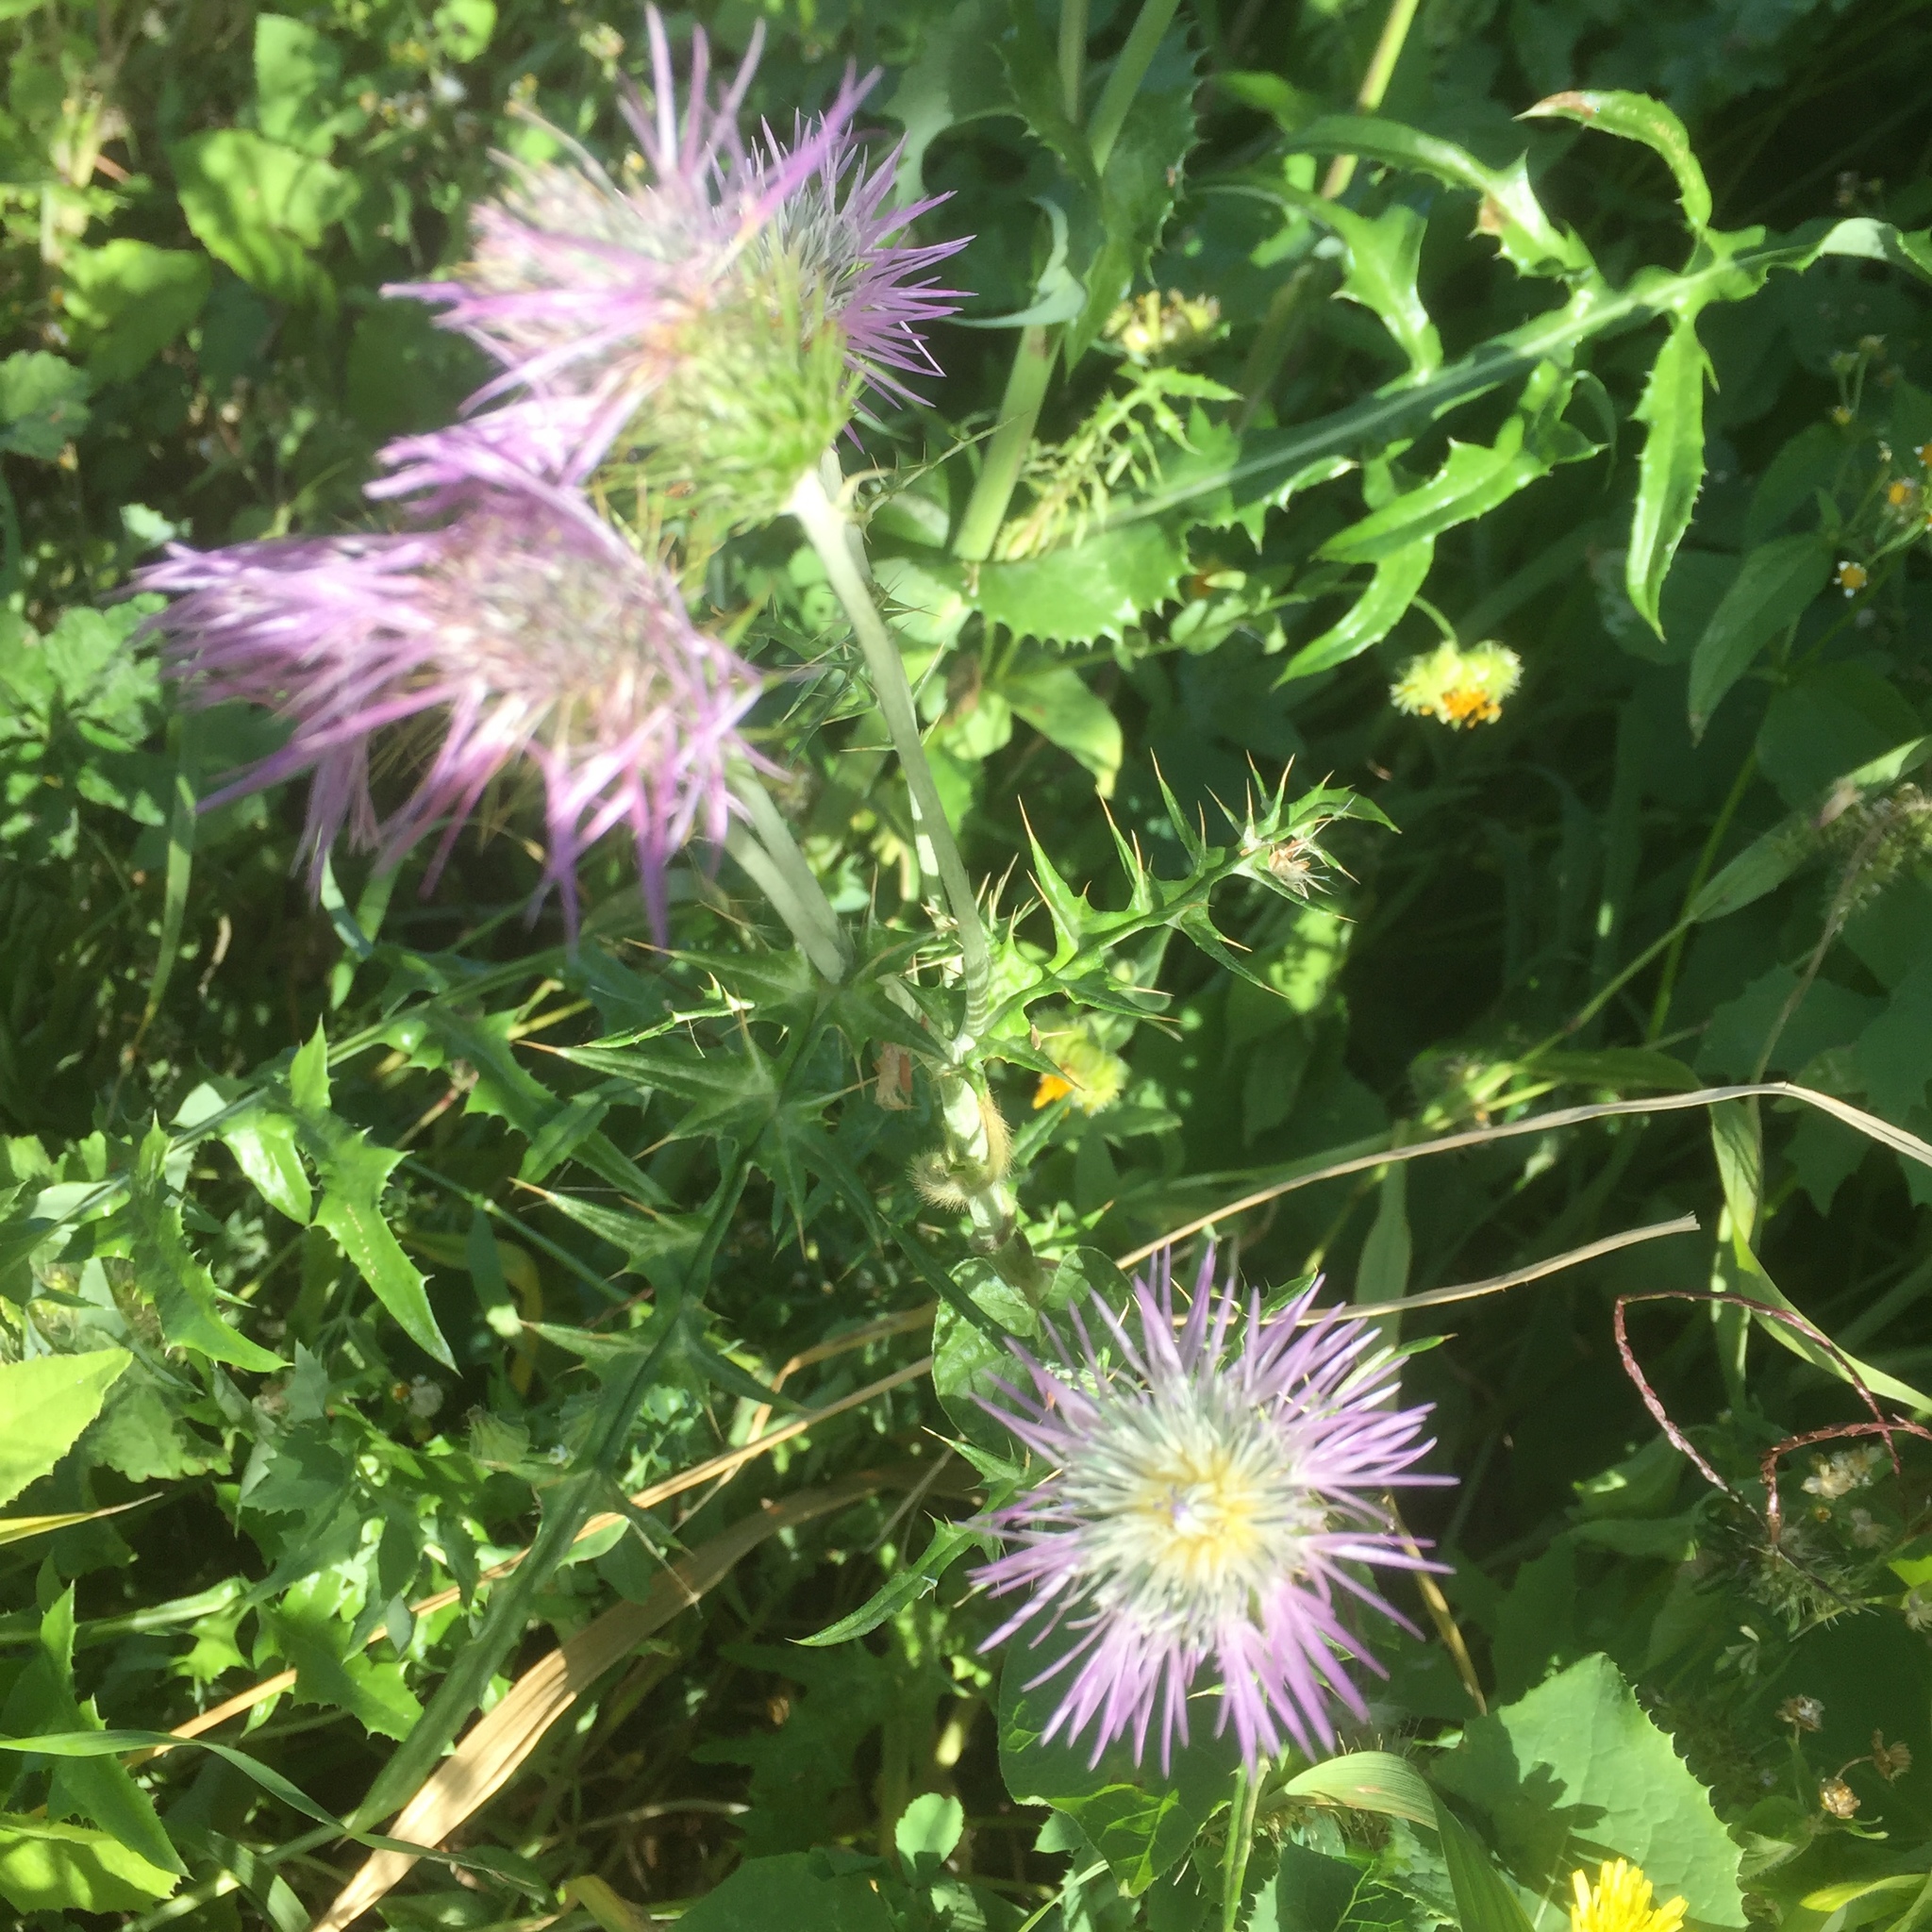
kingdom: Plantae
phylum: Tracheophyta
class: Magnoliopsida
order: Asterales
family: Asteraceae
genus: Galactites
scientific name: Galactites tomentosa
